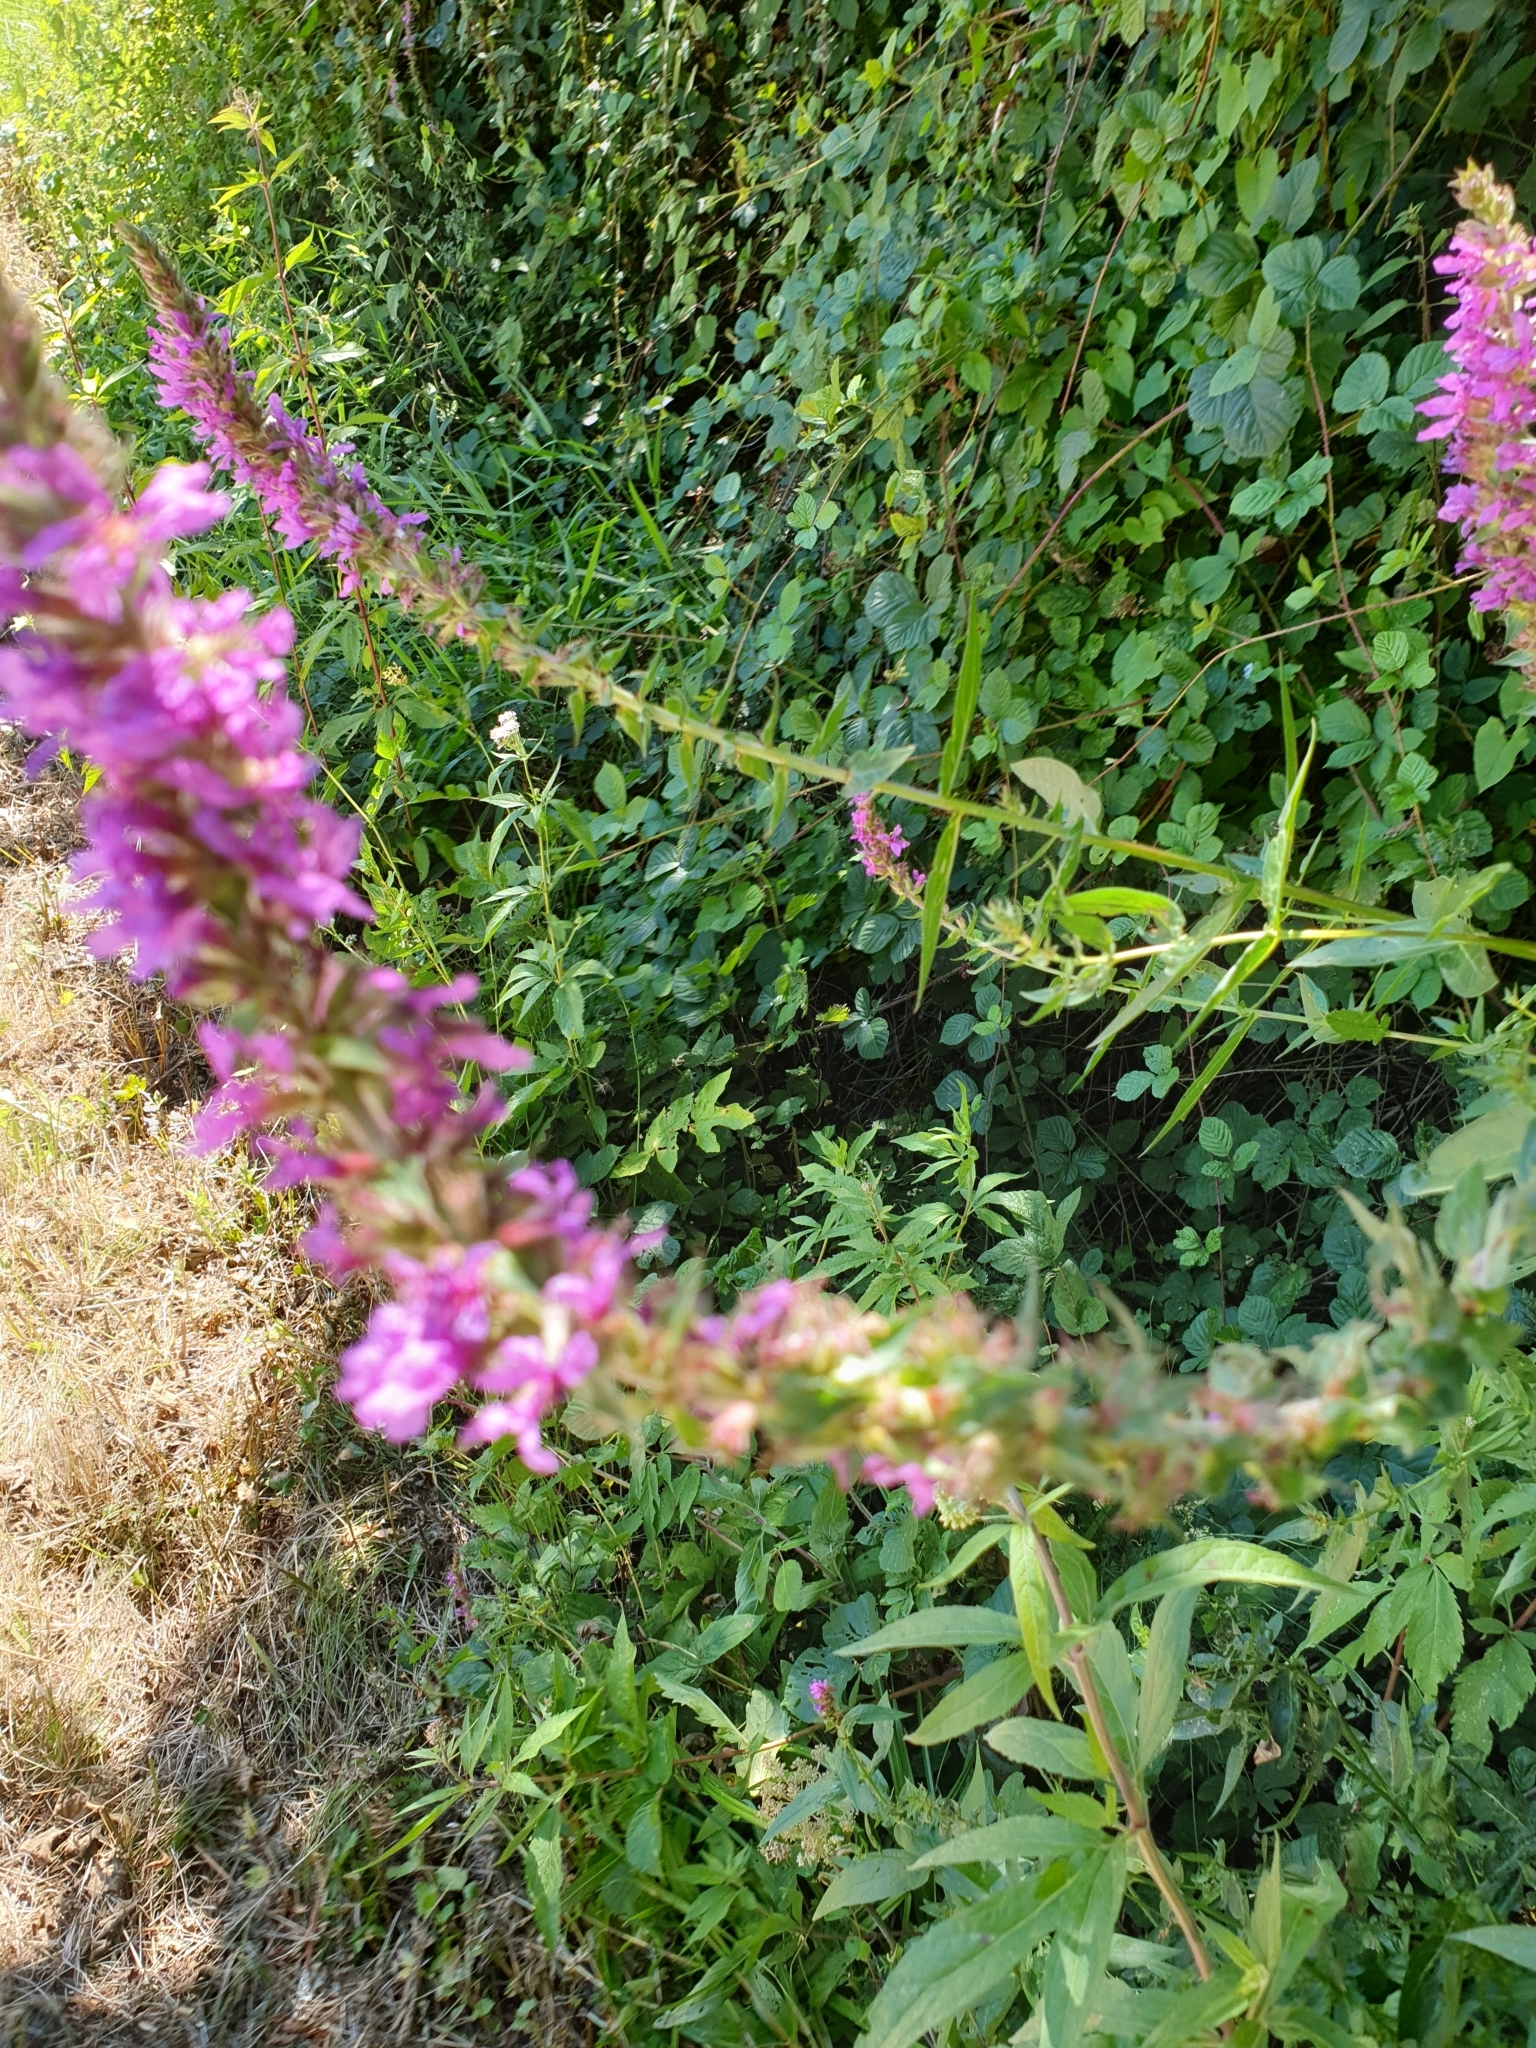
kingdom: Plantae
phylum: Tracheophyta
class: Magnoliopsida
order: Myrtales
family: Lythraceae
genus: Lythrum
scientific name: Lythrum salicaria
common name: Purple loosestrife
